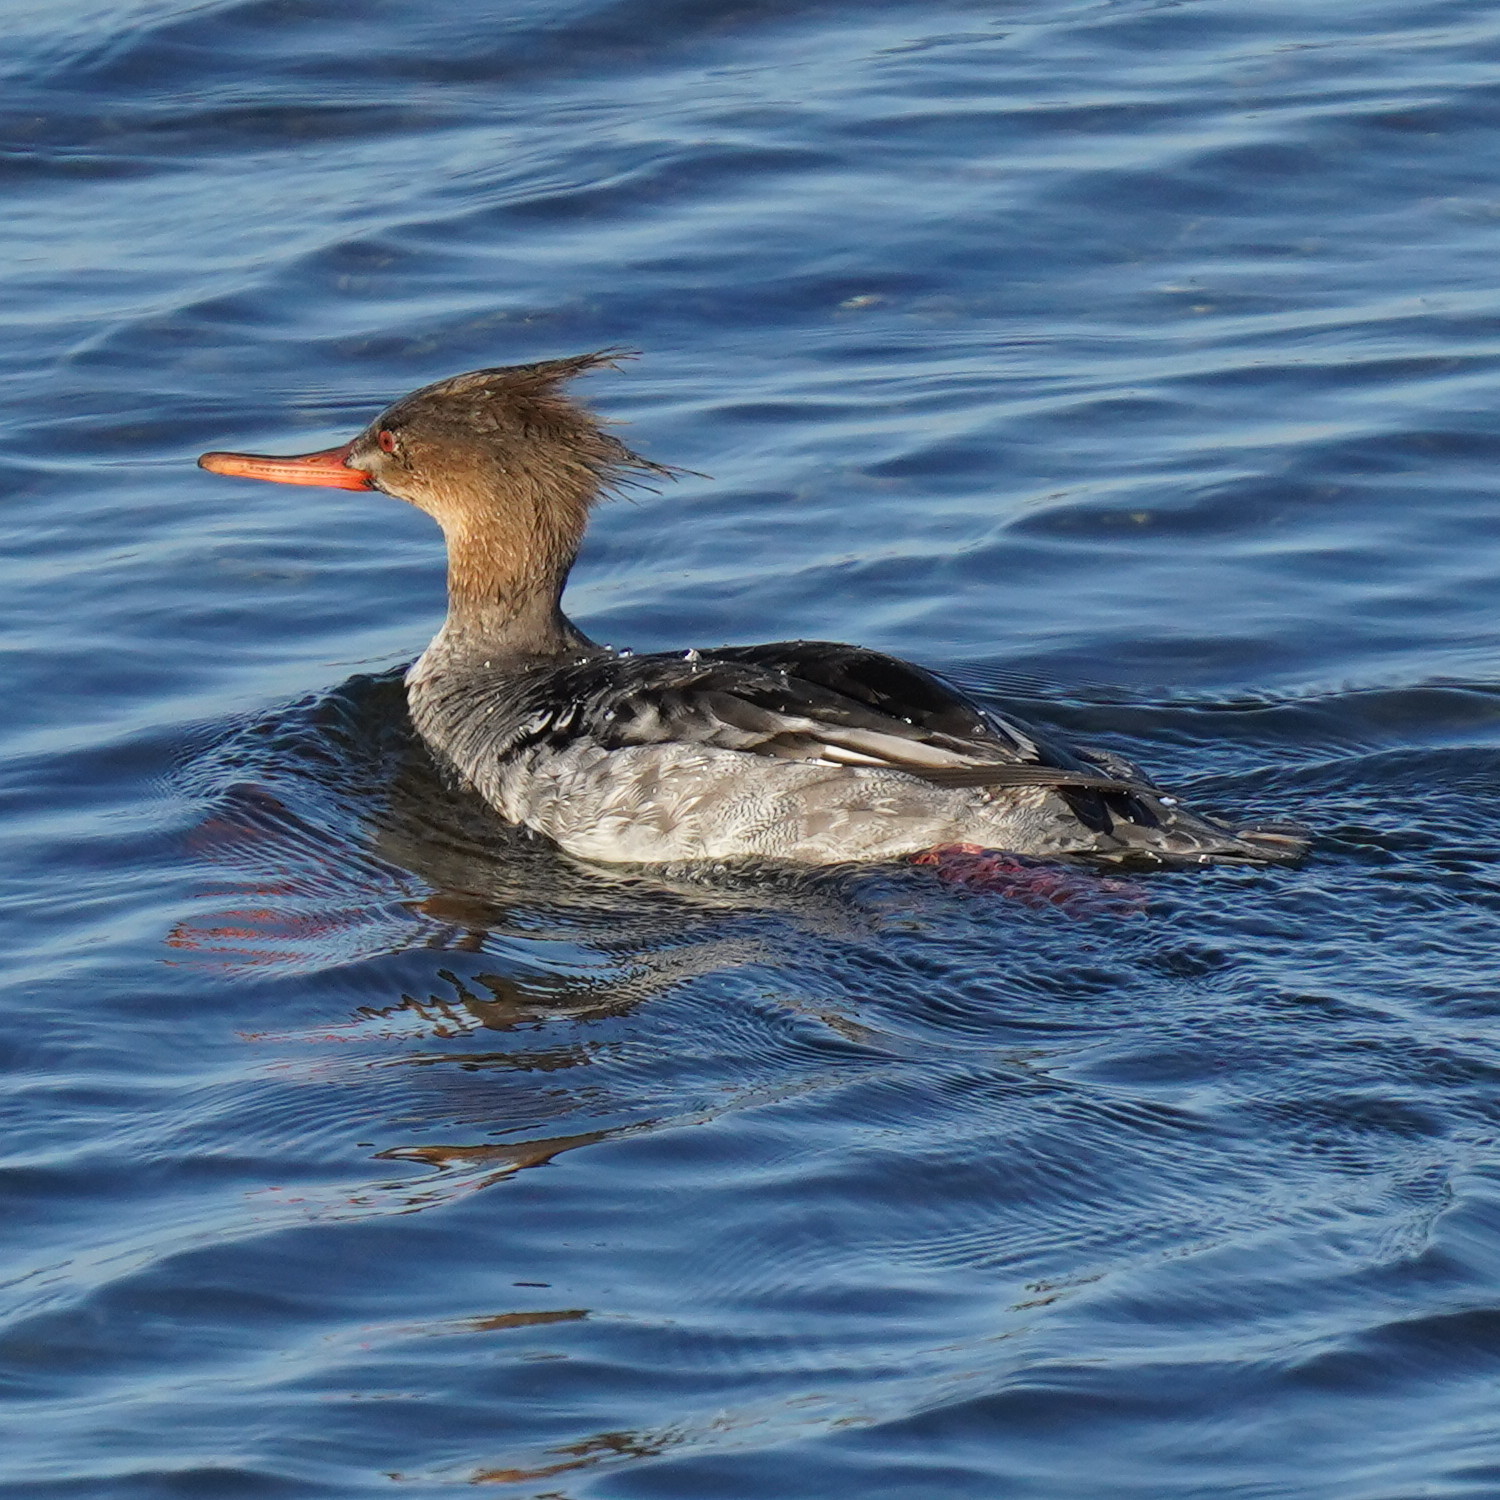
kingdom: Animalia
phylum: Chordata
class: Aves
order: Anseriformes
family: Anatidae
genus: Mergus
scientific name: Mergus serrator
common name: Red-breasted merganser
